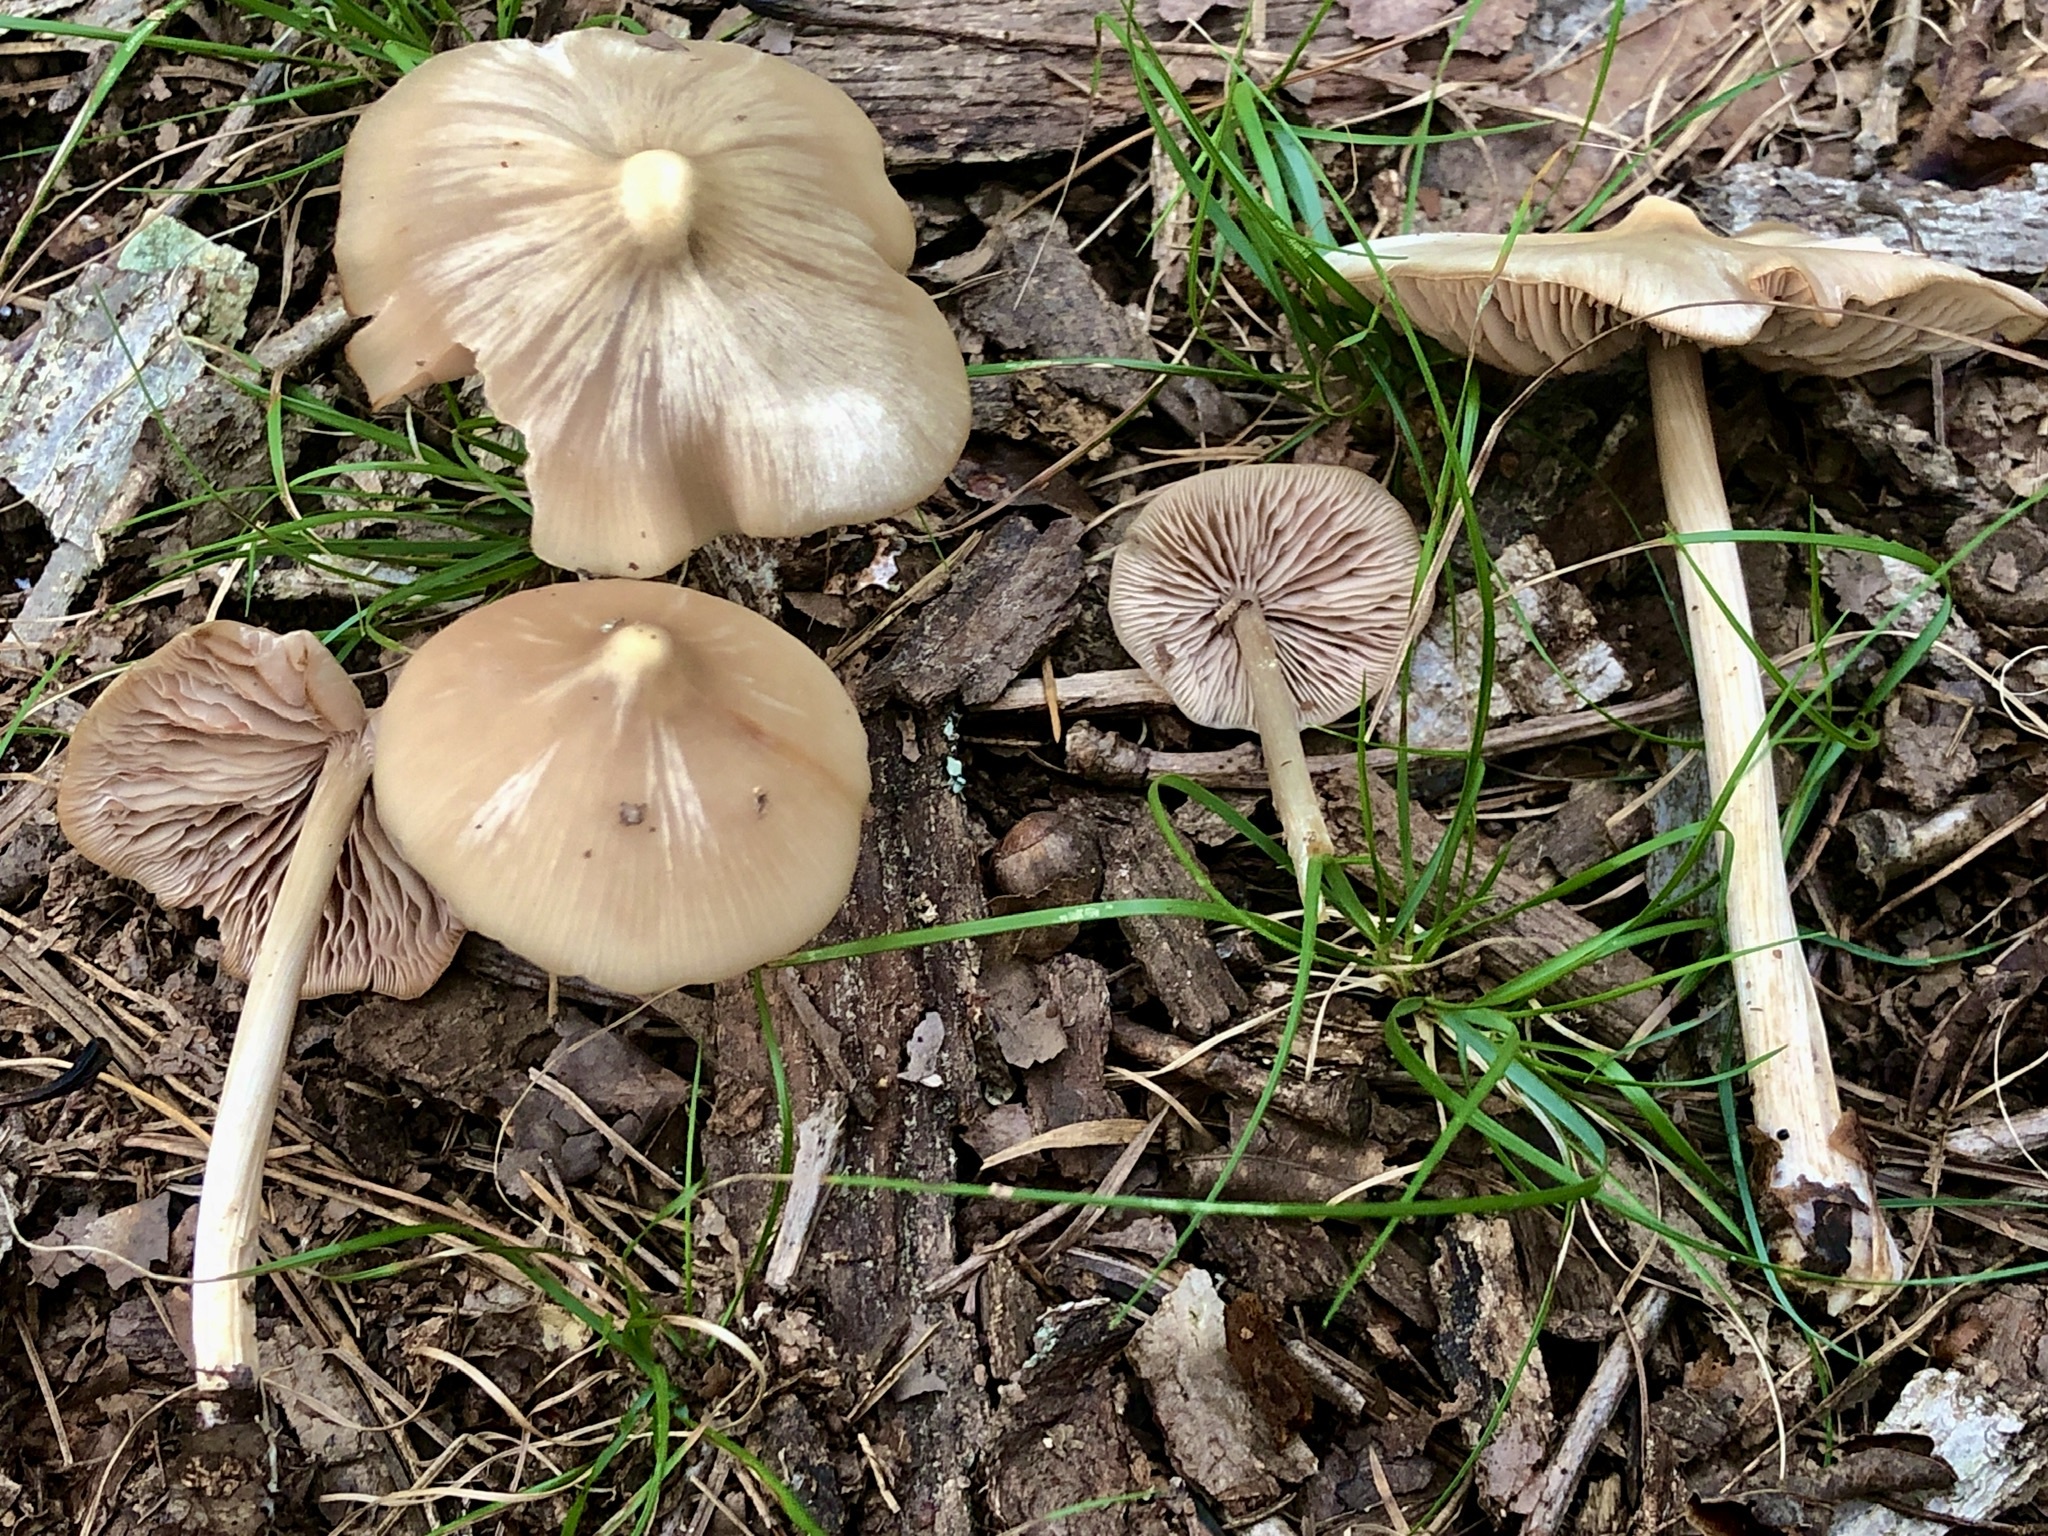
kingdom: Fungi
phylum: Basidiomycota
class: Agaricomycetes
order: Agaricales
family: Entolomataceae
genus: Entoloma
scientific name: Entoloma strictius
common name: Straight-stalked entoloma
